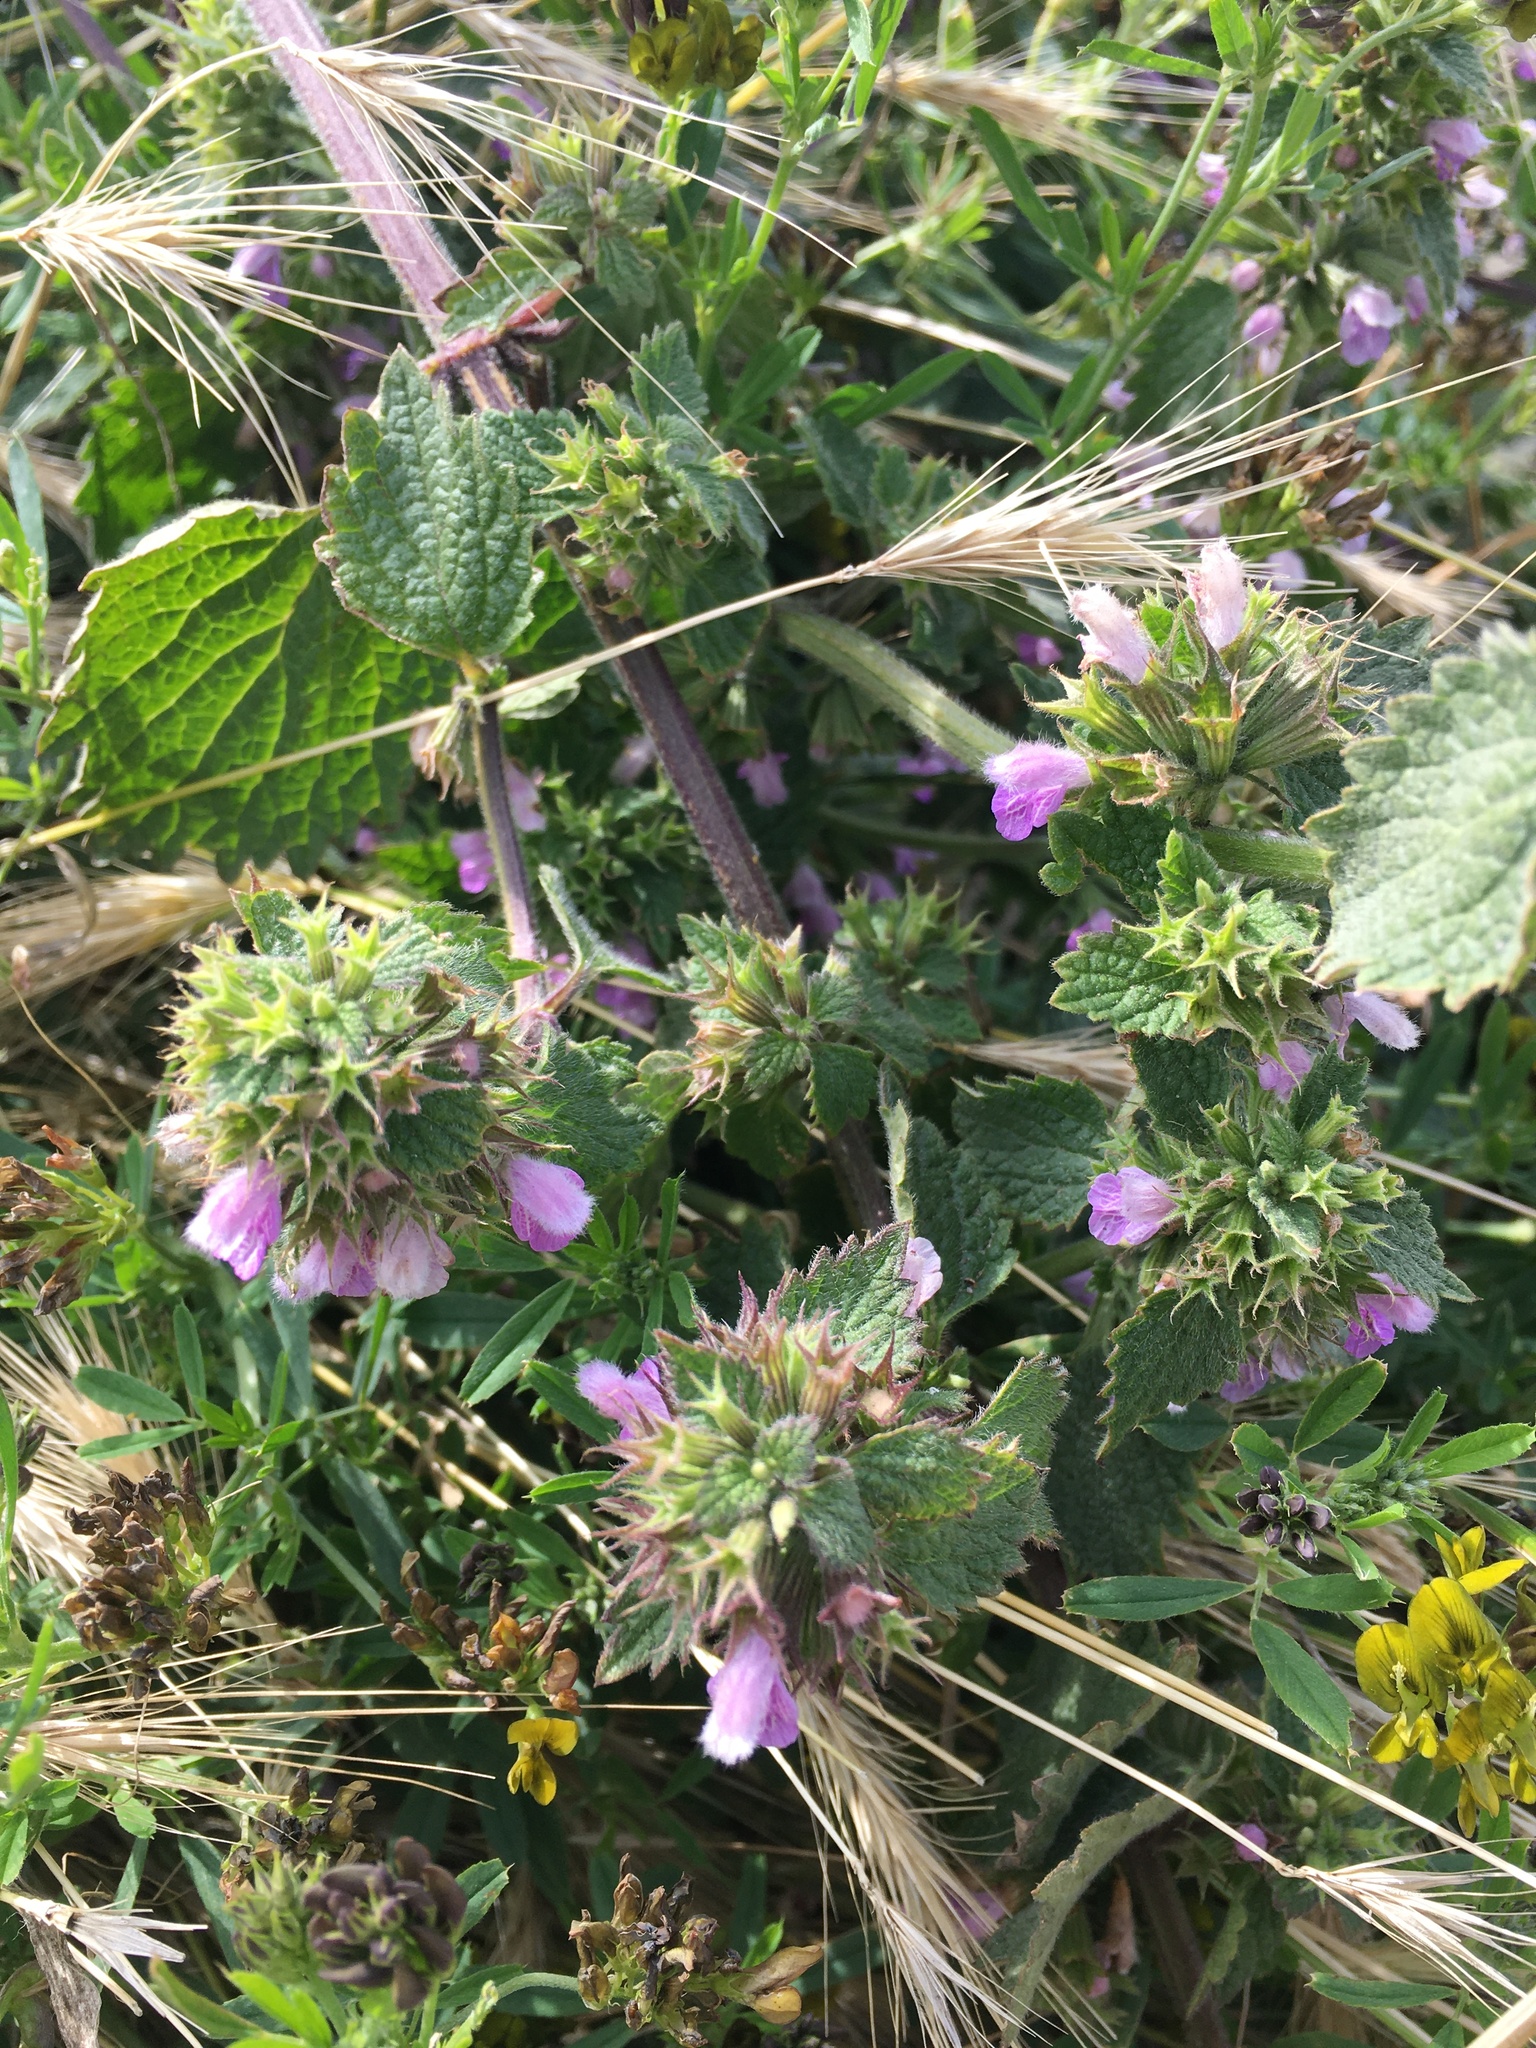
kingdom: Plantae
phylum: Tracheophyta
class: Magnoliopsida
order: Lamiales
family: Lamiaceae
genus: Ballota
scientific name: Ballota nigra
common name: Black horehound
